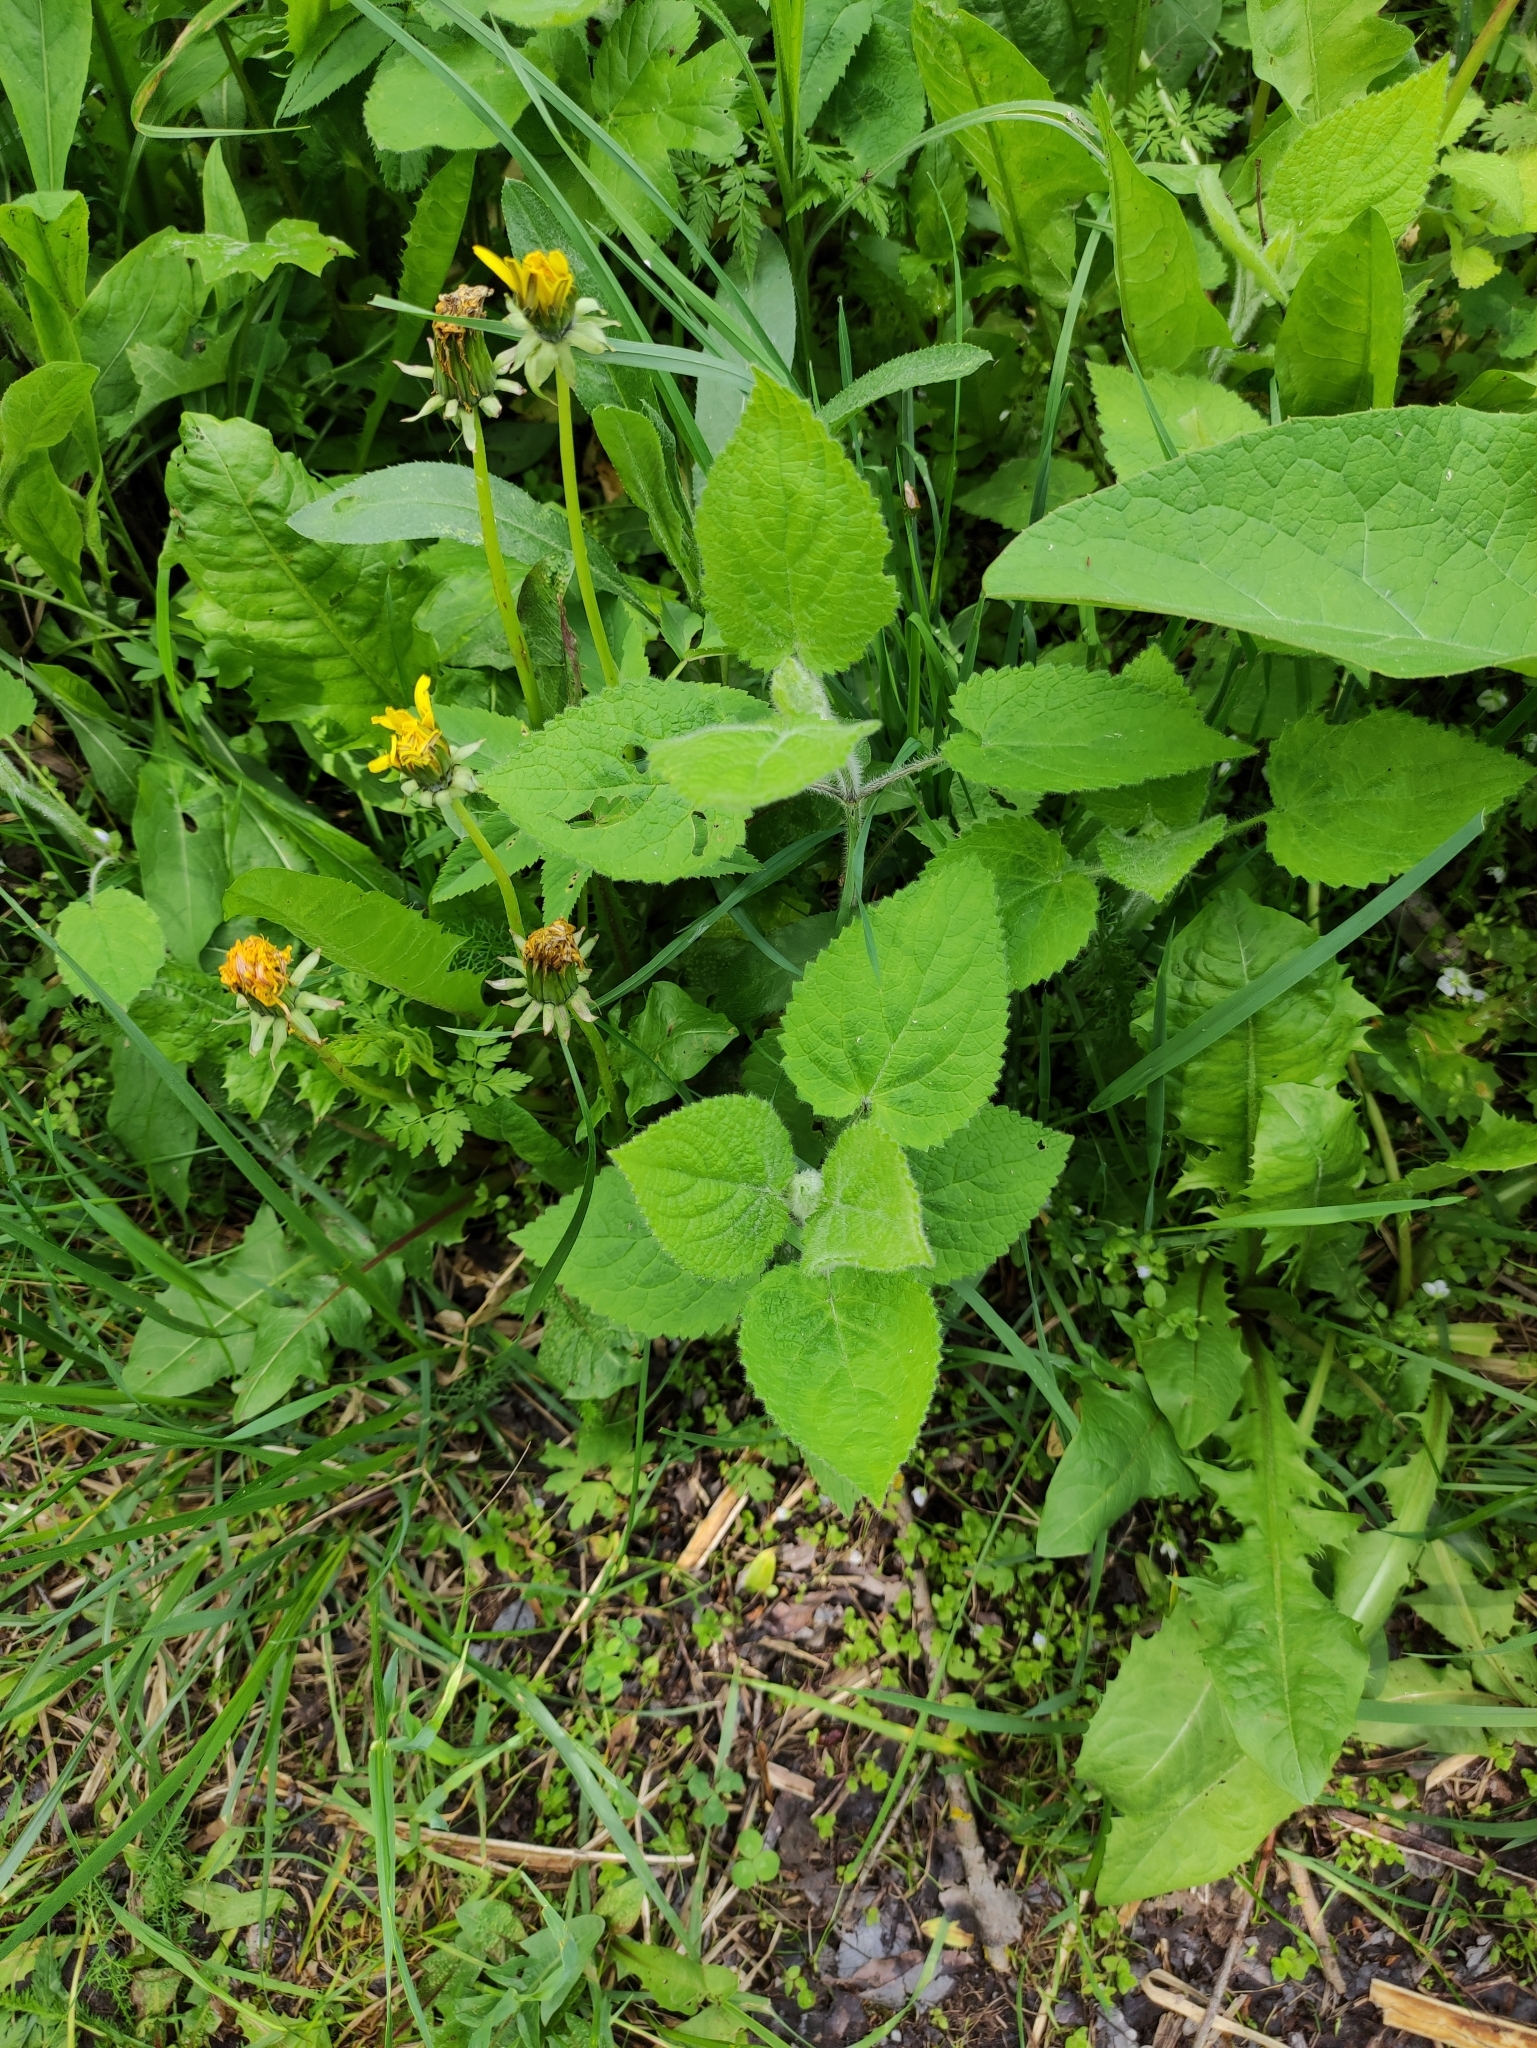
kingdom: Plantae
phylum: Tracheophyta
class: Magnoliopsida
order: Lamiales
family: Lamiaceae
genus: Stachys
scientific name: Stachys sylvatica
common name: Hedge woundwort
